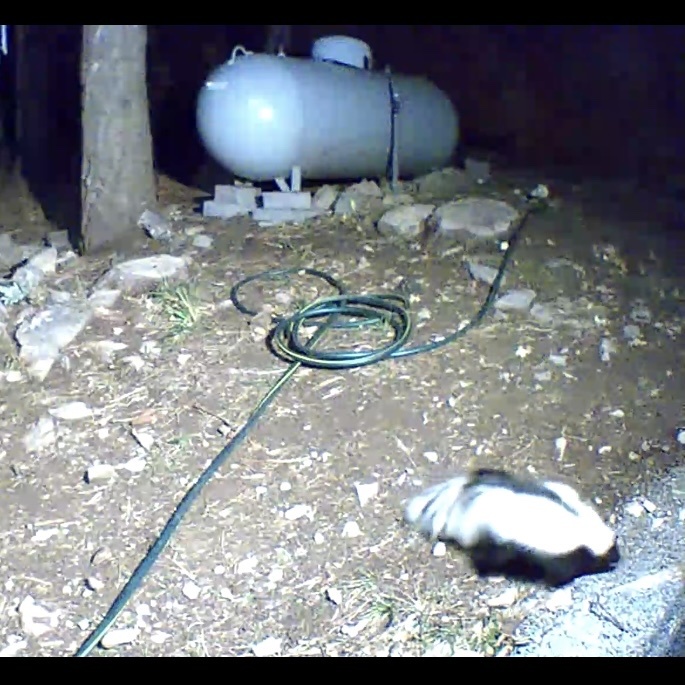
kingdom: Animalia
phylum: Chordata
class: Mammalia
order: Carnivora
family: Mephitidae
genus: Mephitis
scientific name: Mephitis mephitis
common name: Striped skunk
